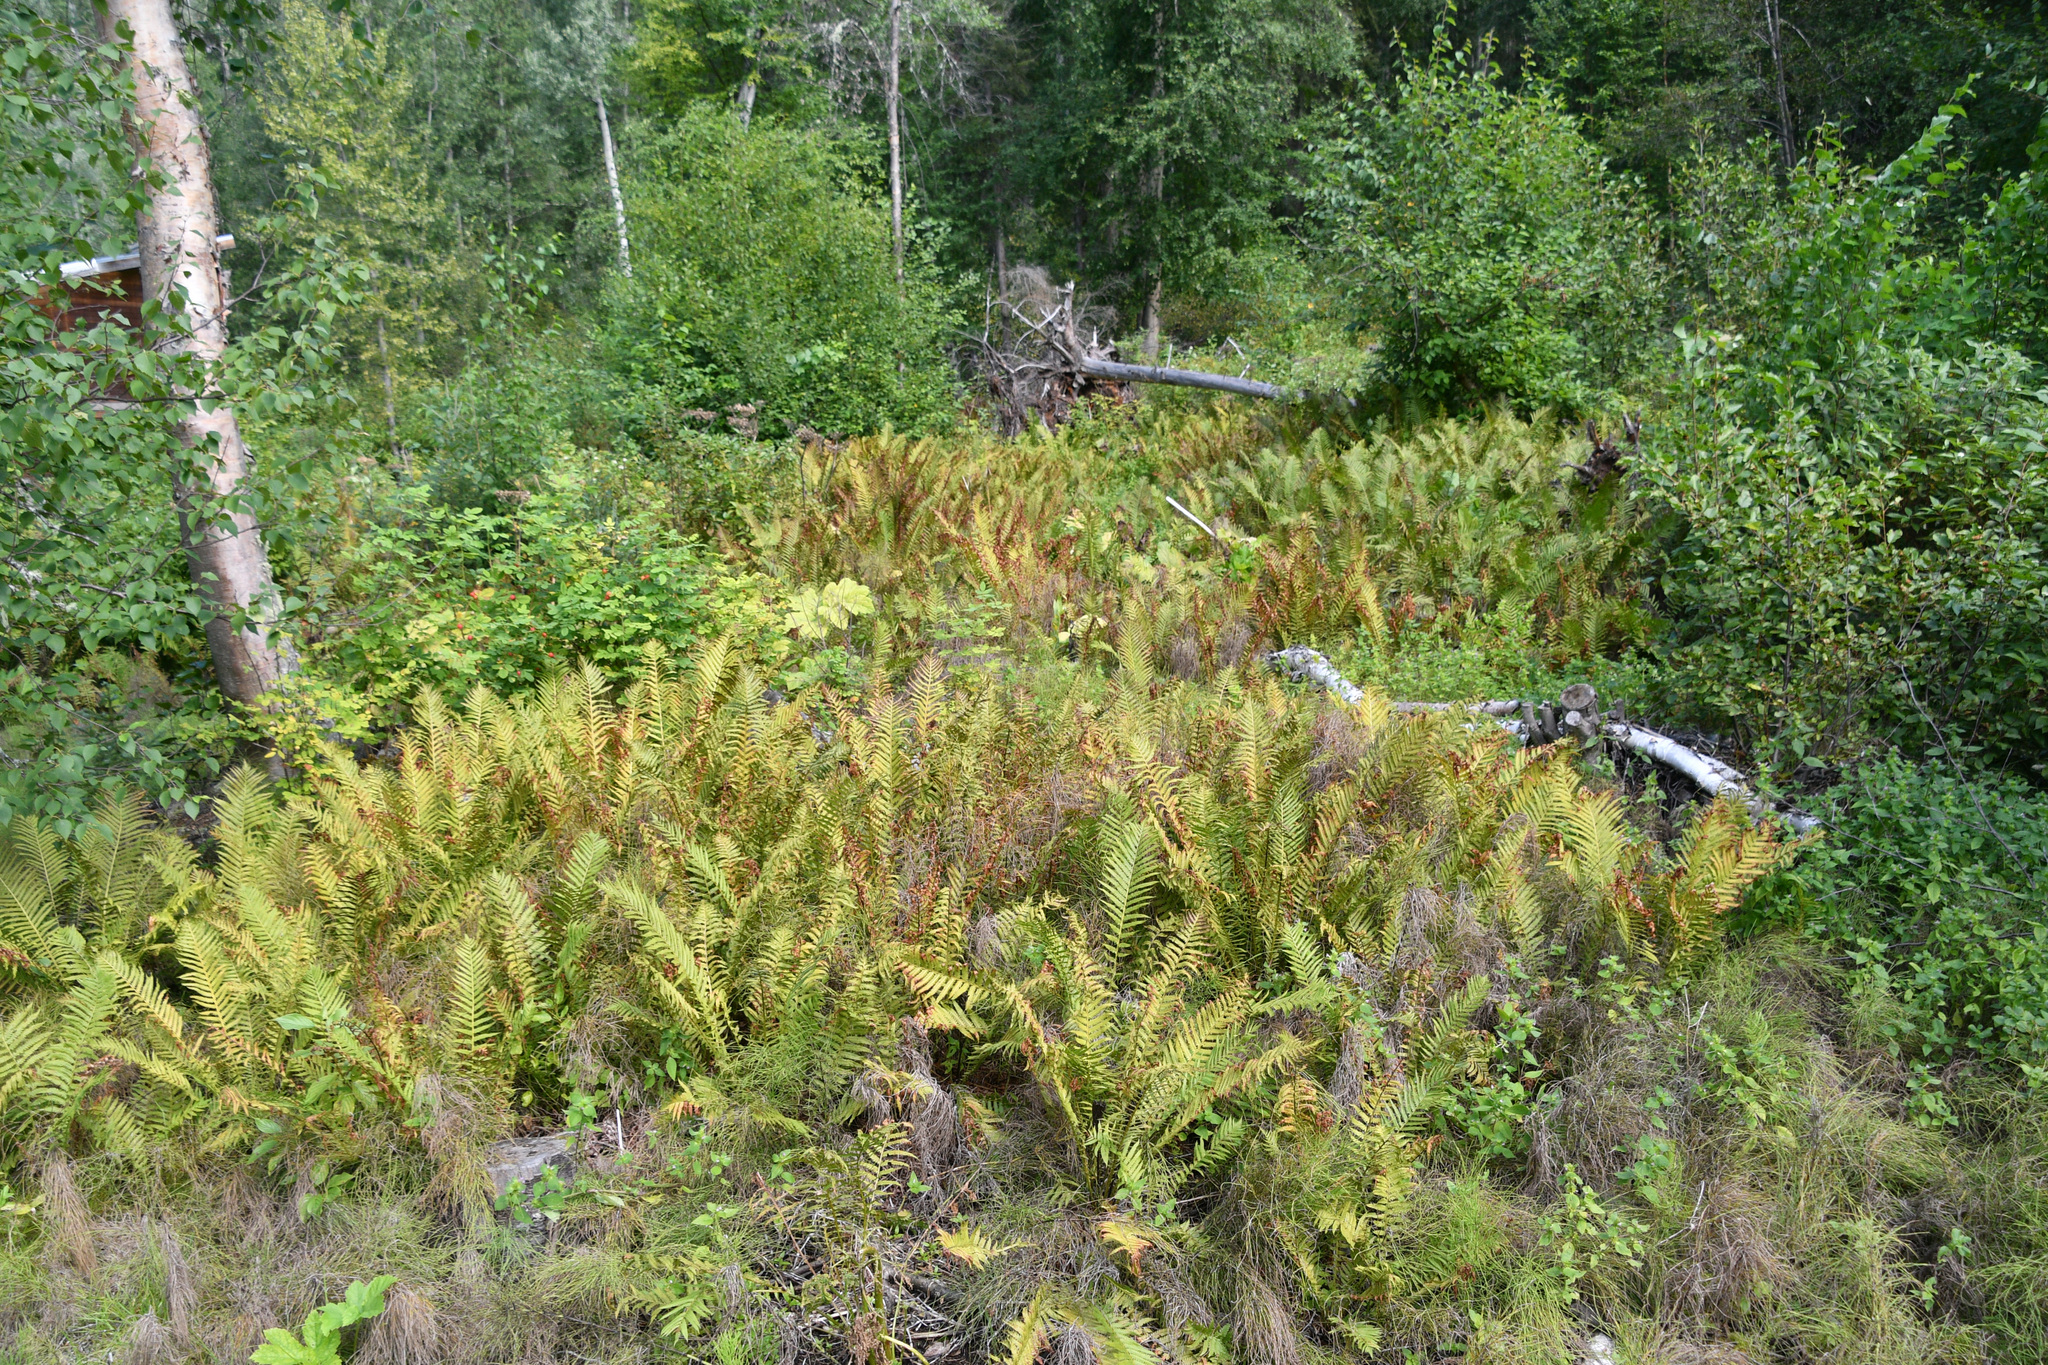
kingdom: Plantae
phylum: Tracheophyta
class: Polypodiopsida
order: Polypodiales
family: Onocleaceae
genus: Matteuccia
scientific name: Matteuccia struthiopteris
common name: Ostrich fern
